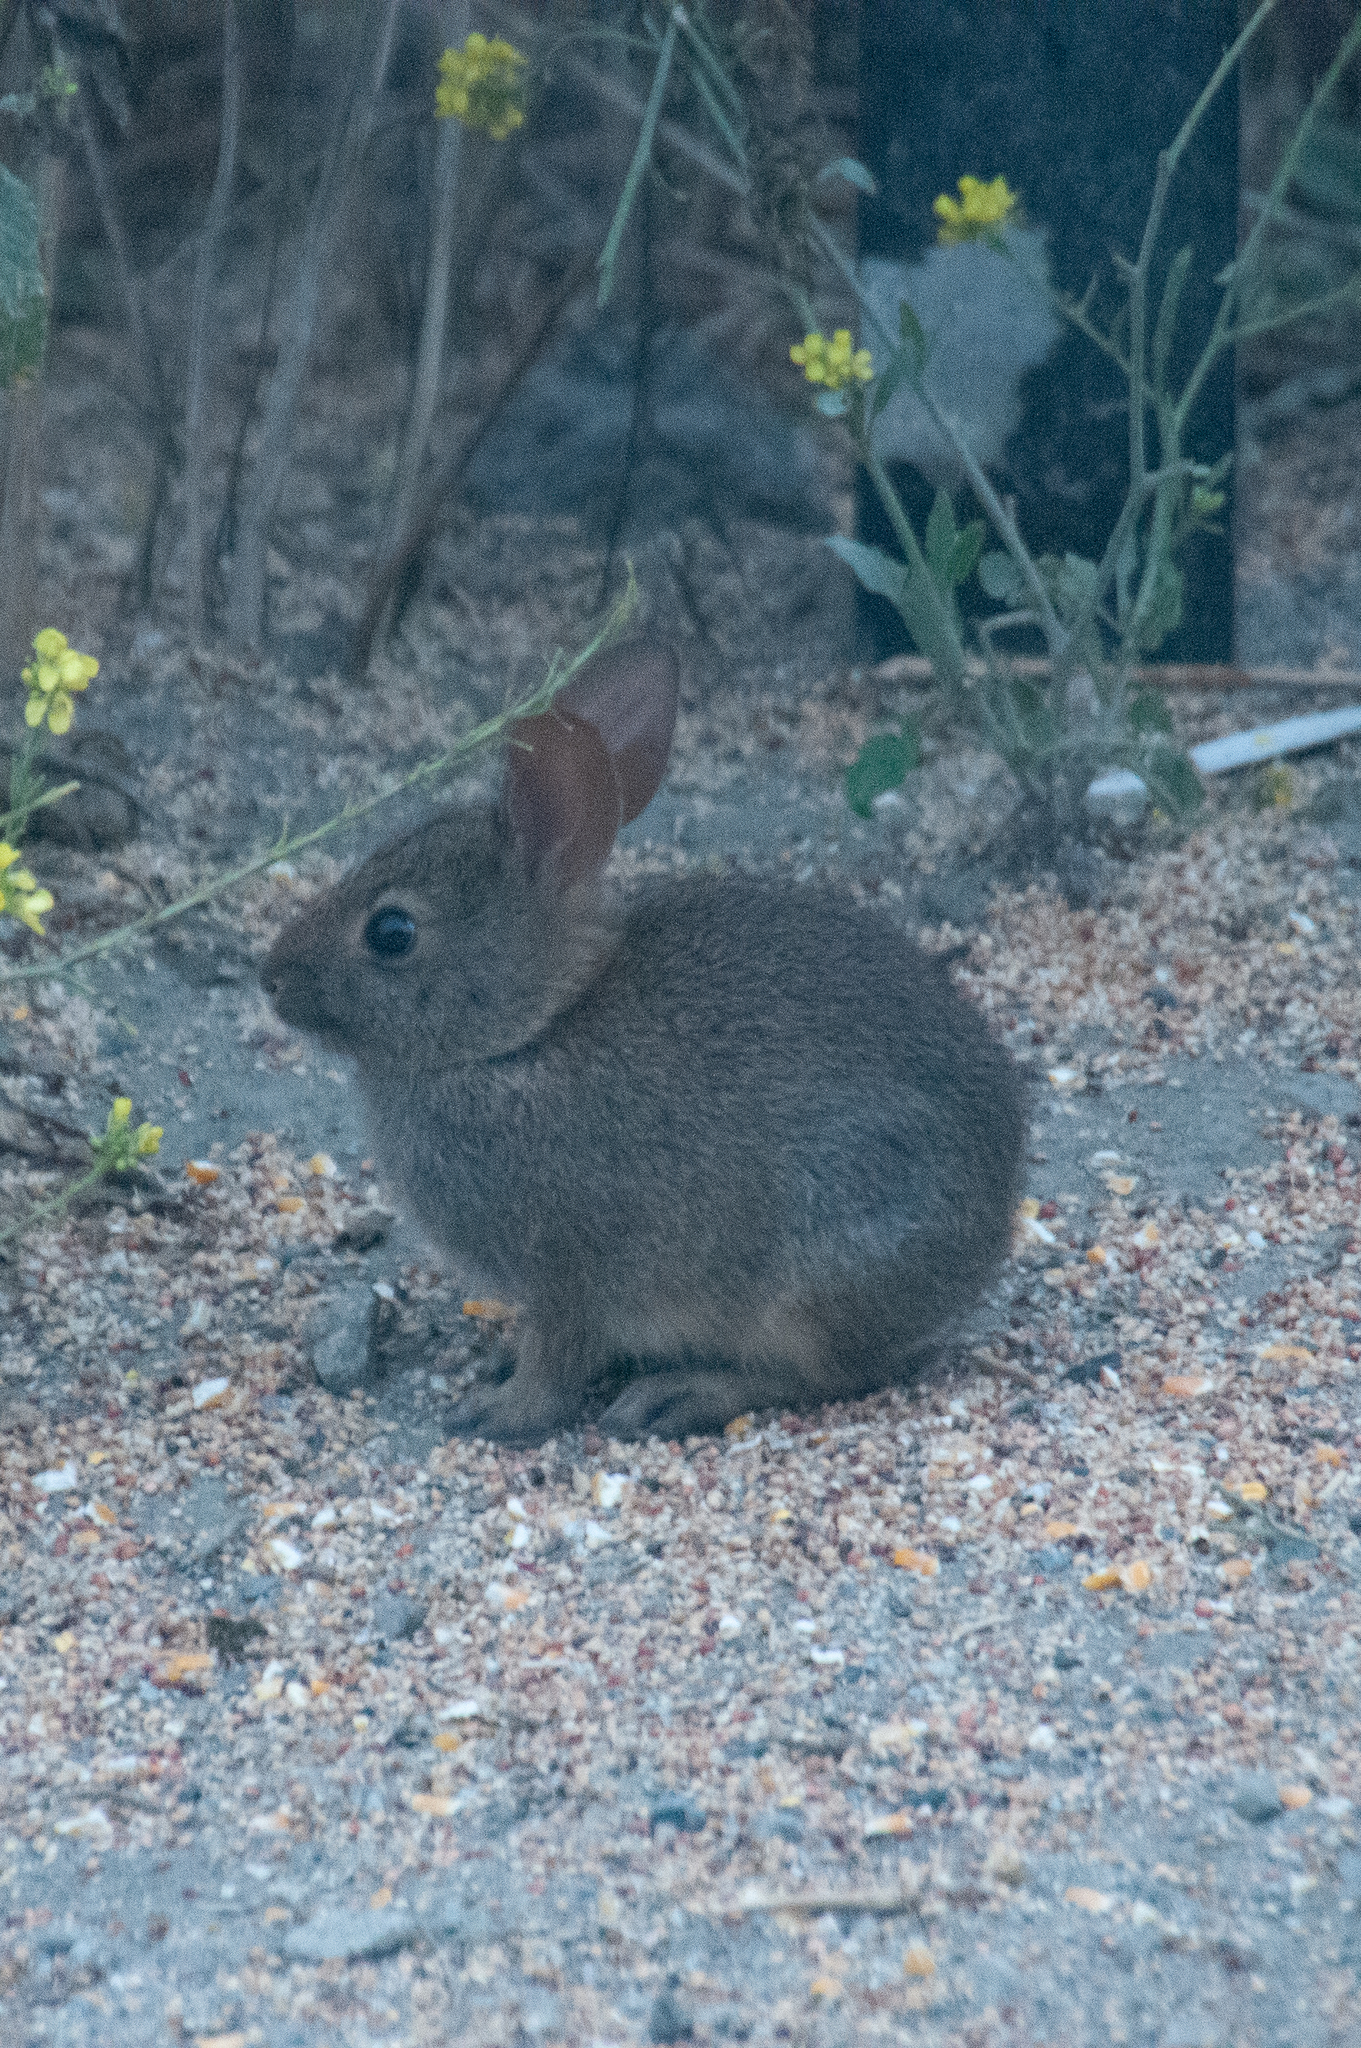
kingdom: Animalia
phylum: Chordata
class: Mammalia
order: Lagomorpha
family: Leporidae
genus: Sylvilagus
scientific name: Sylvilagus bachmani
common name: Brush rabbit
